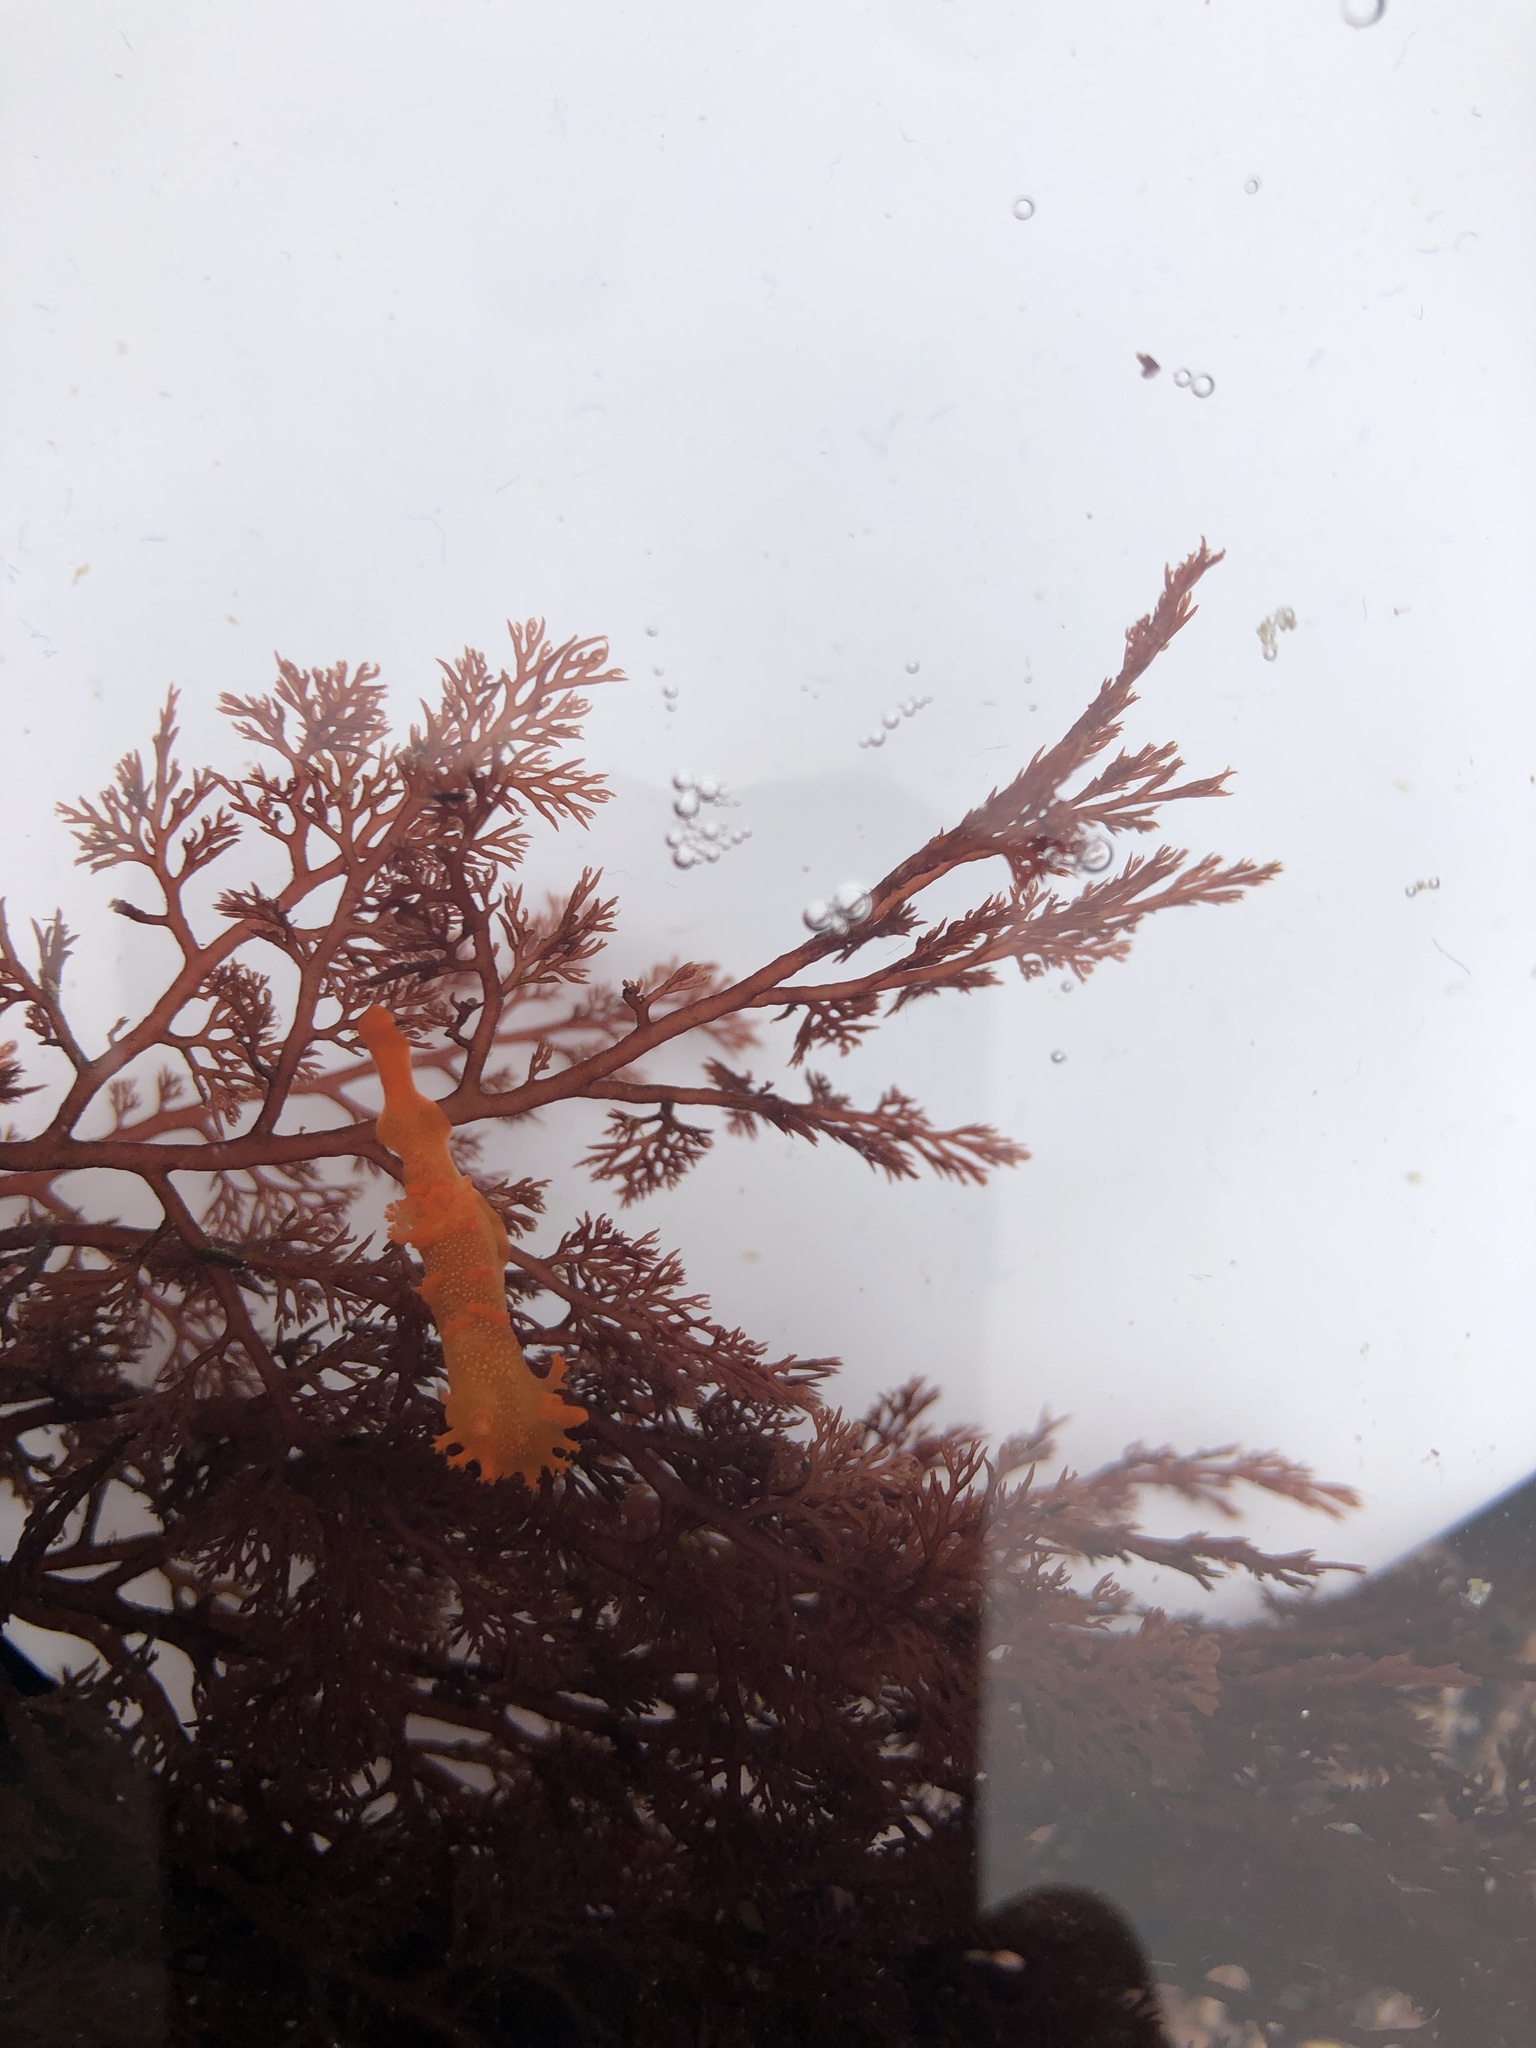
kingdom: Animalia
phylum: Mollusca
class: Gastropoda
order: Nudibranchia
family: Polyceridae
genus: Triopha
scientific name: Triopha maculata
